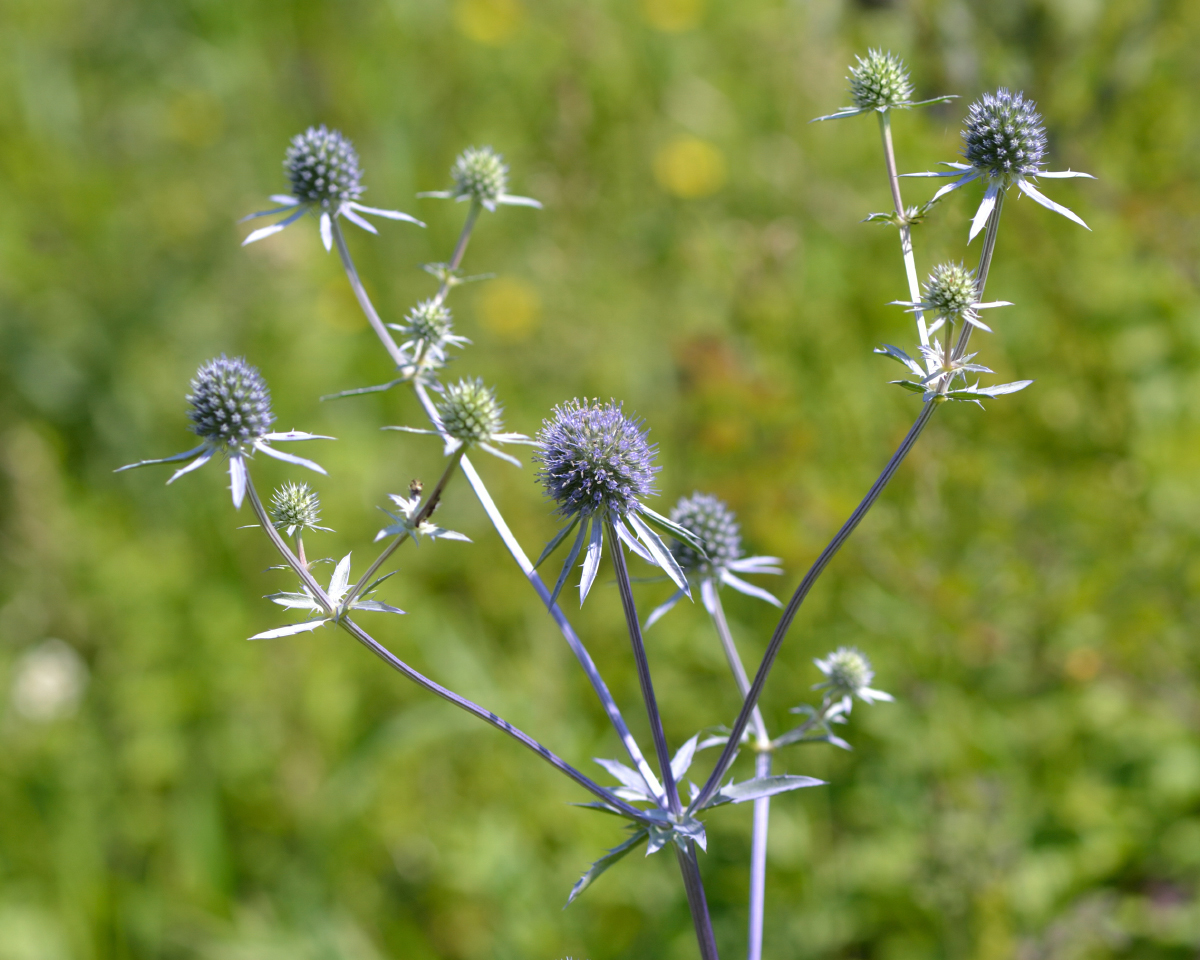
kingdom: Plantae
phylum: Tracheophyta
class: Magnoliopsida
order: Apiales
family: Apiaceae
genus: Eryngium
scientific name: Eryngium planum
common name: Blue eryngo
